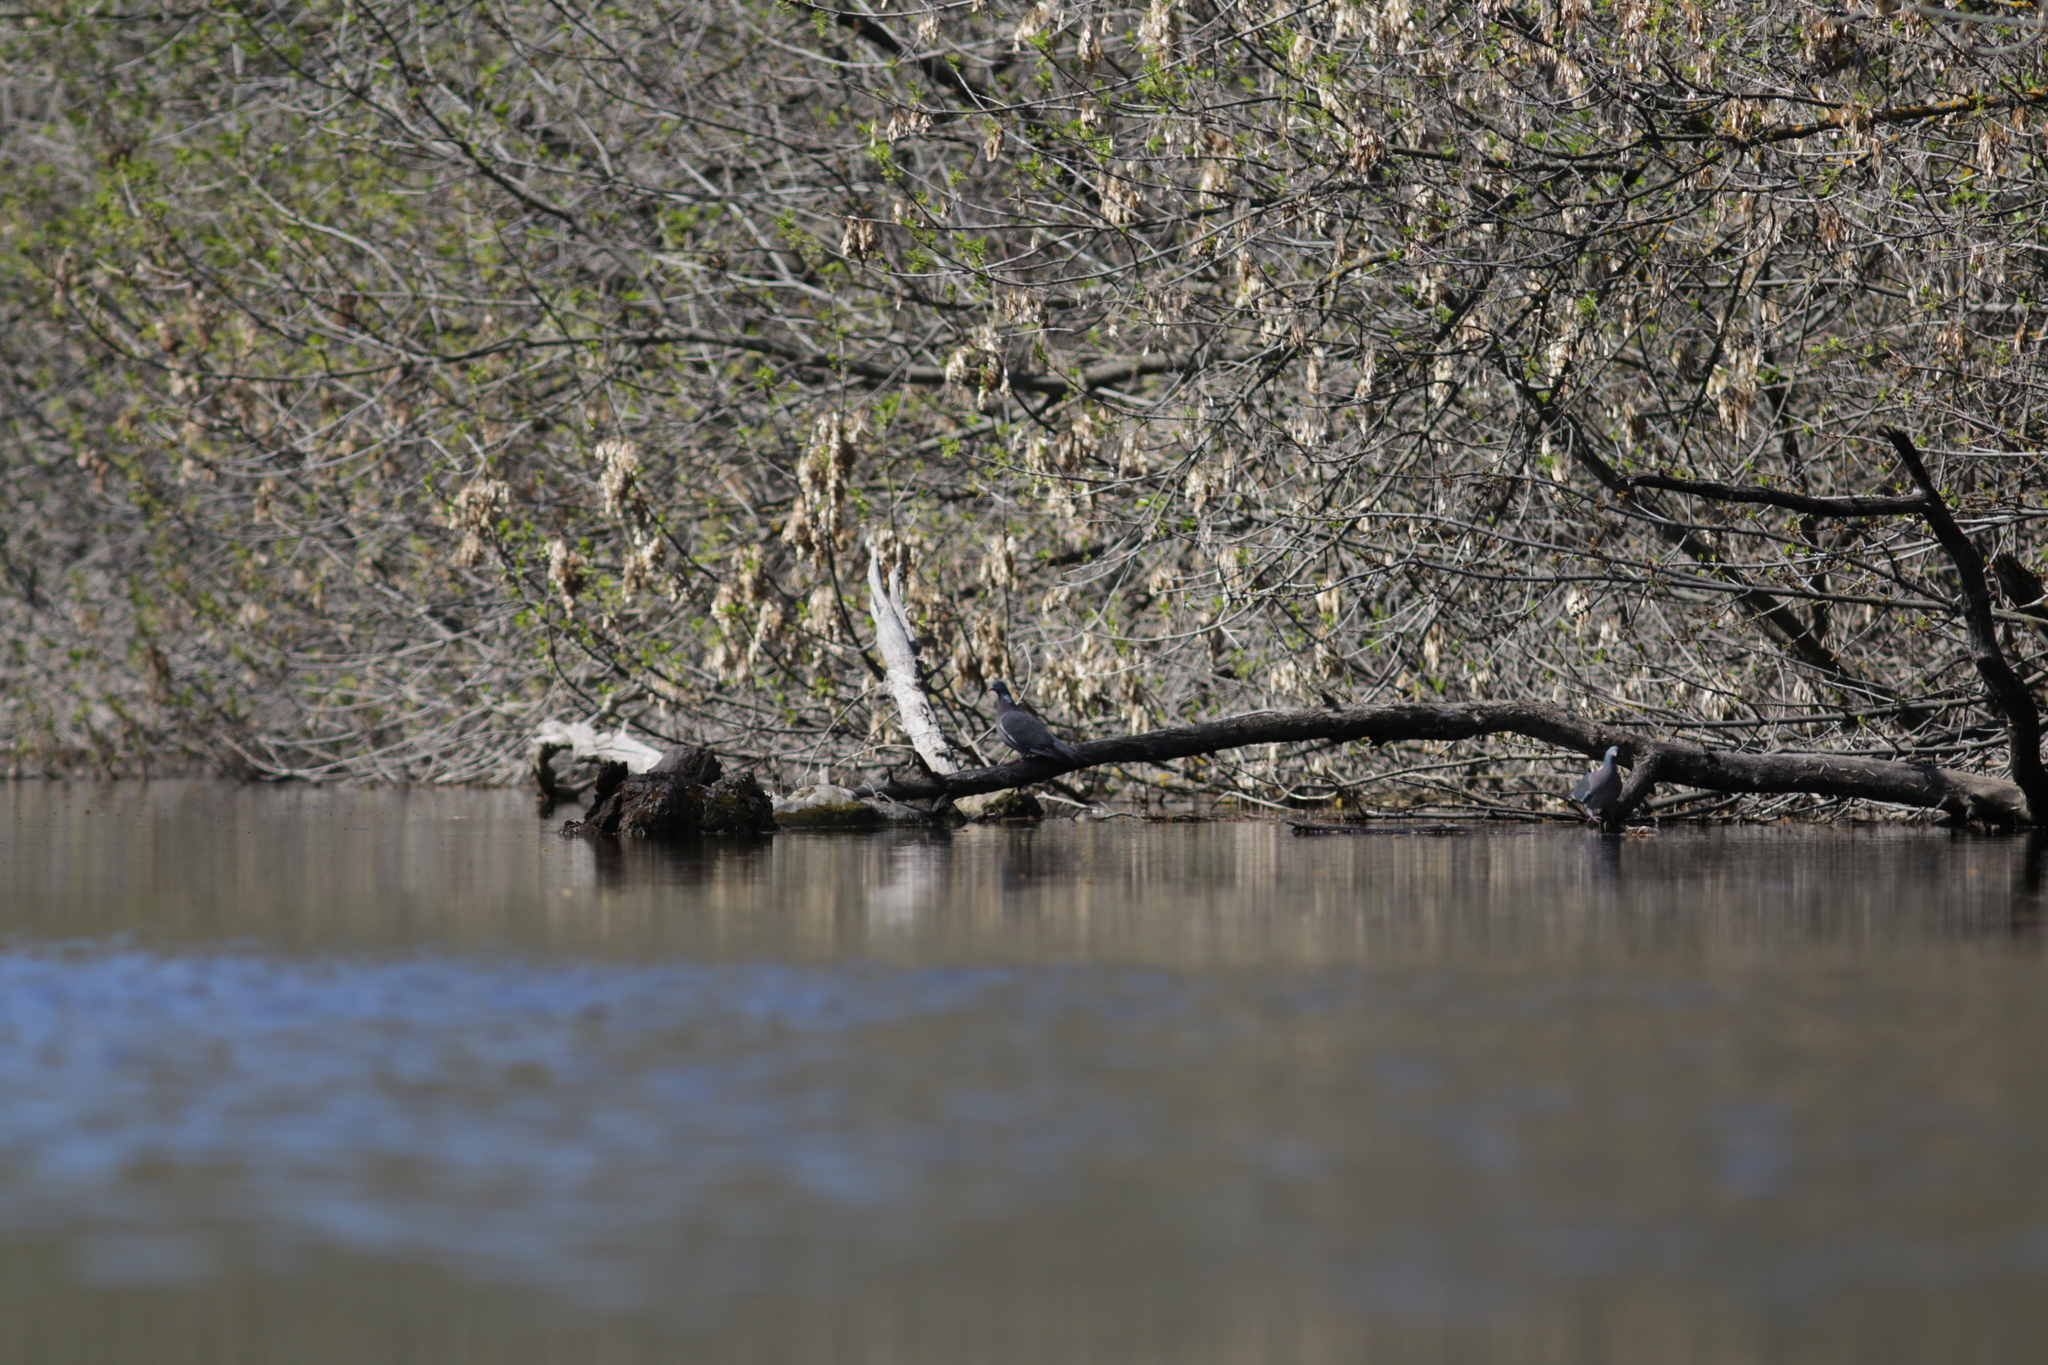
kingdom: Animalia
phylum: Chordata
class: Aves
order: Columbiformes
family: Columbidae
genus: Columba
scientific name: Columba palumbus
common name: Common wood pigeon
